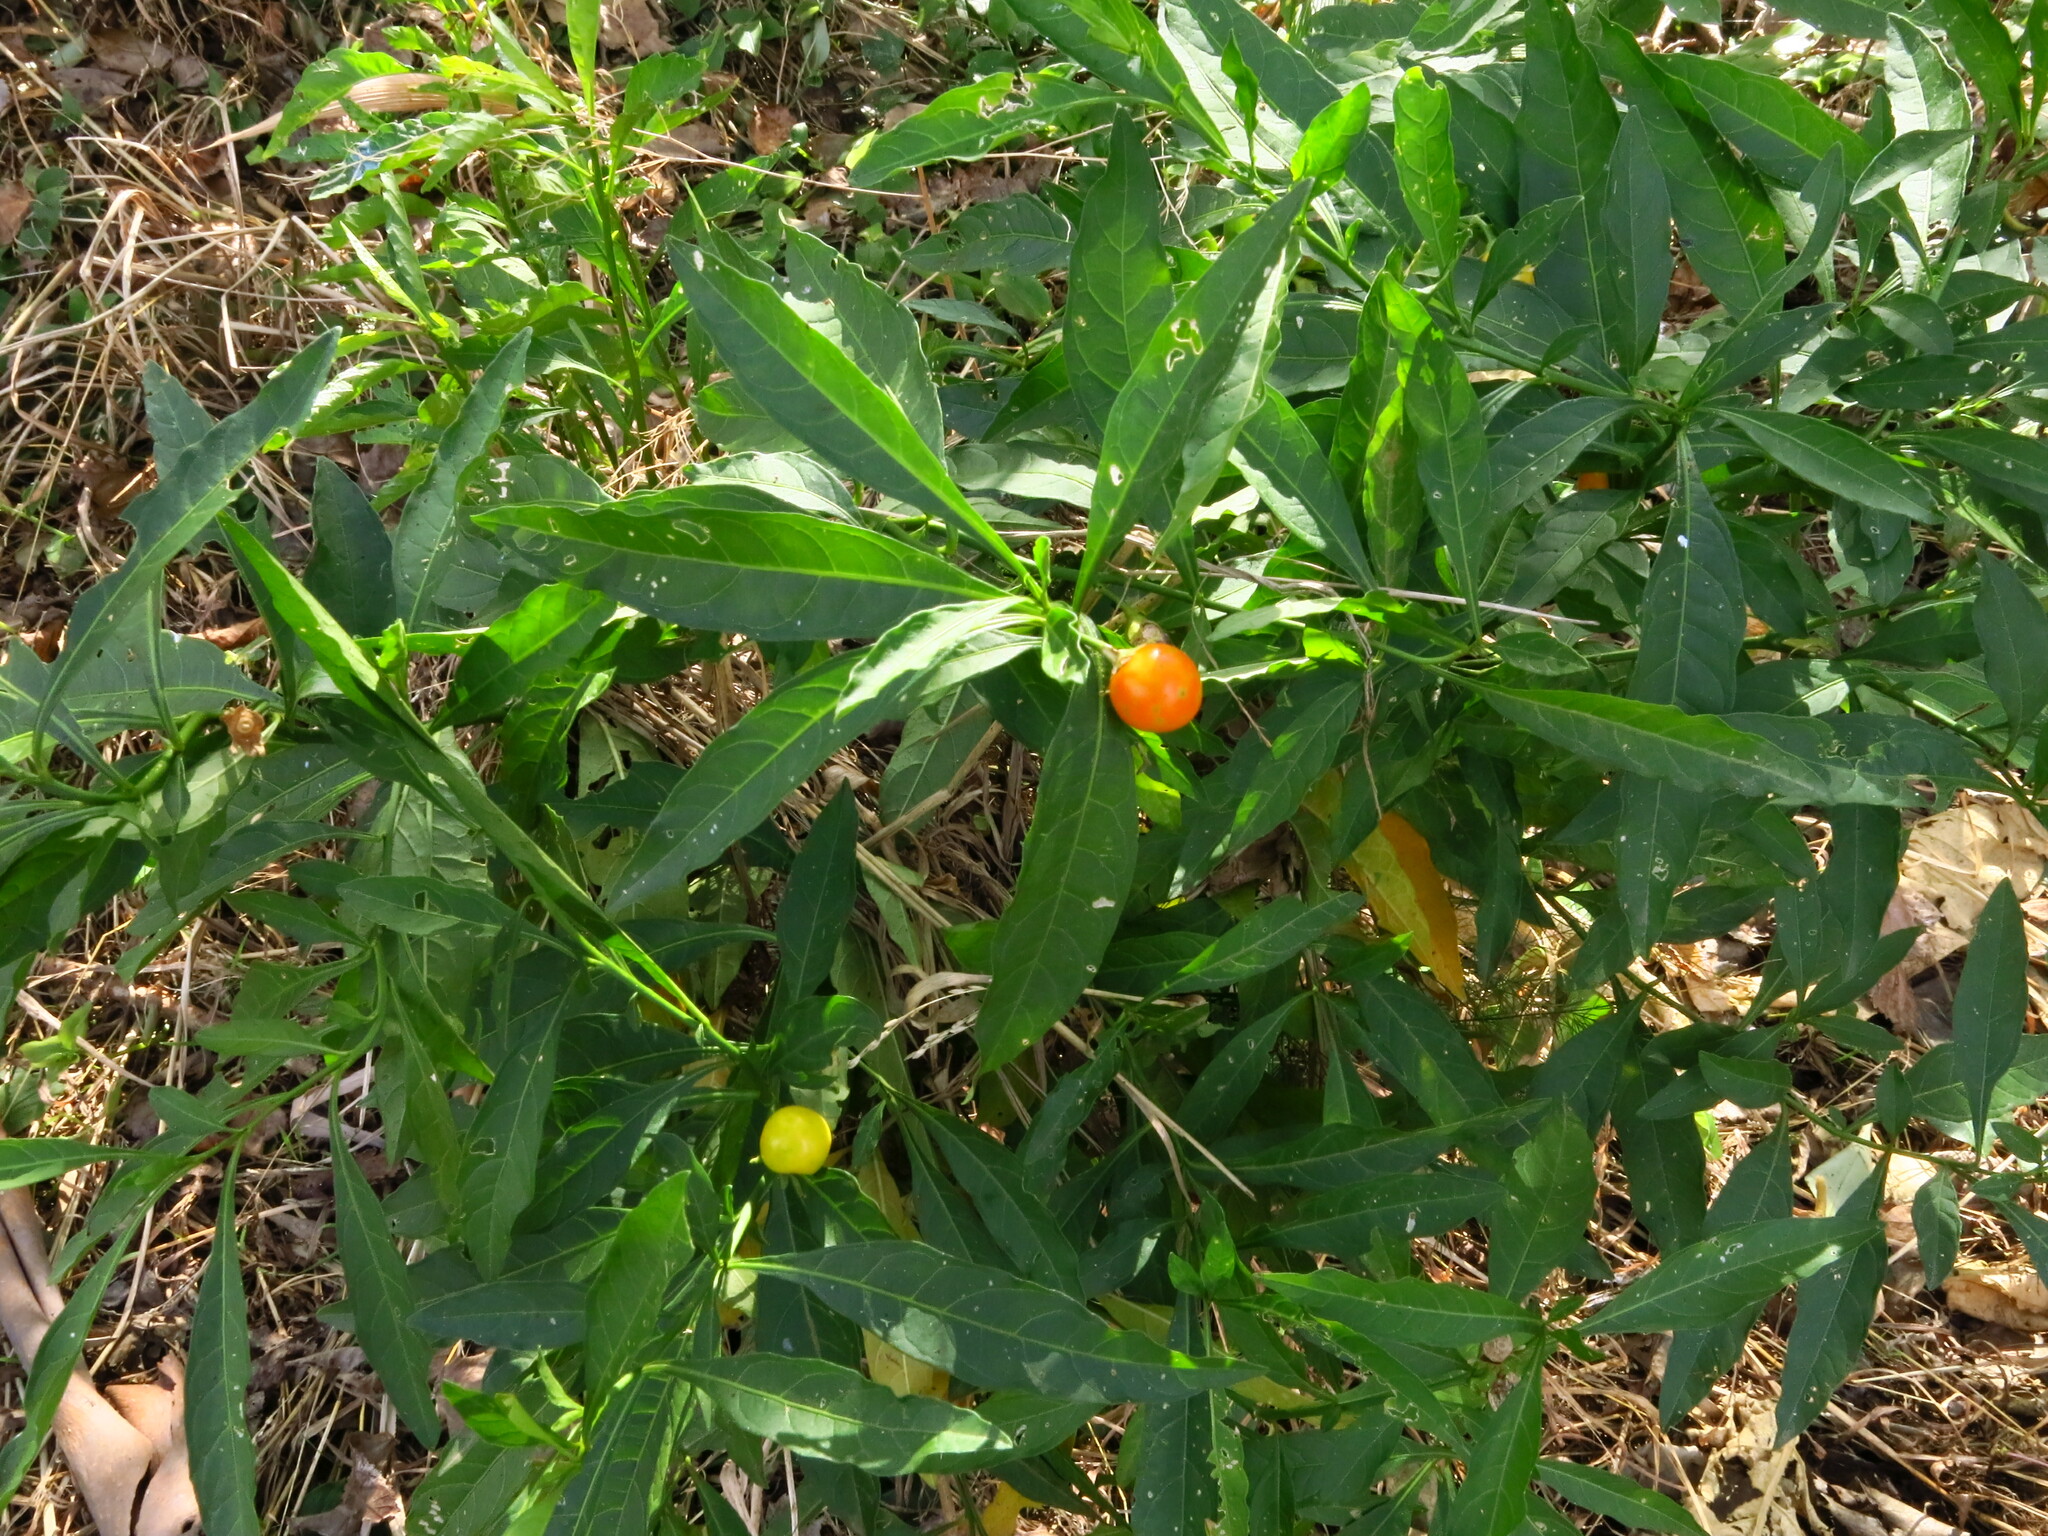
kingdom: Plantae
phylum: Tracheophyta
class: Magnoliopsida
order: Solanales
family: Solanaceae
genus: Solanum
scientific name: Solanum pseudocapsicum
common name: Jerusalem cherry
